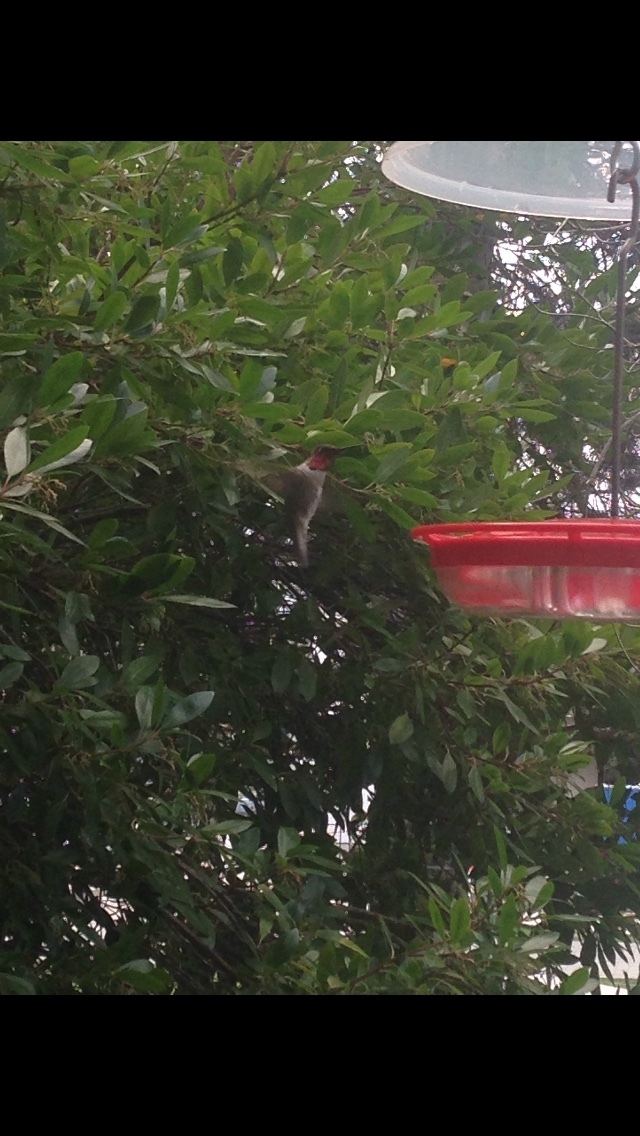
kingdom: Animalia
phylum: Chordata
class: Aves
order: Apodiformes
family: Trochilidae
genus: Calypte
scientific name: Calypte anna
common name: Anna's hummingbird
